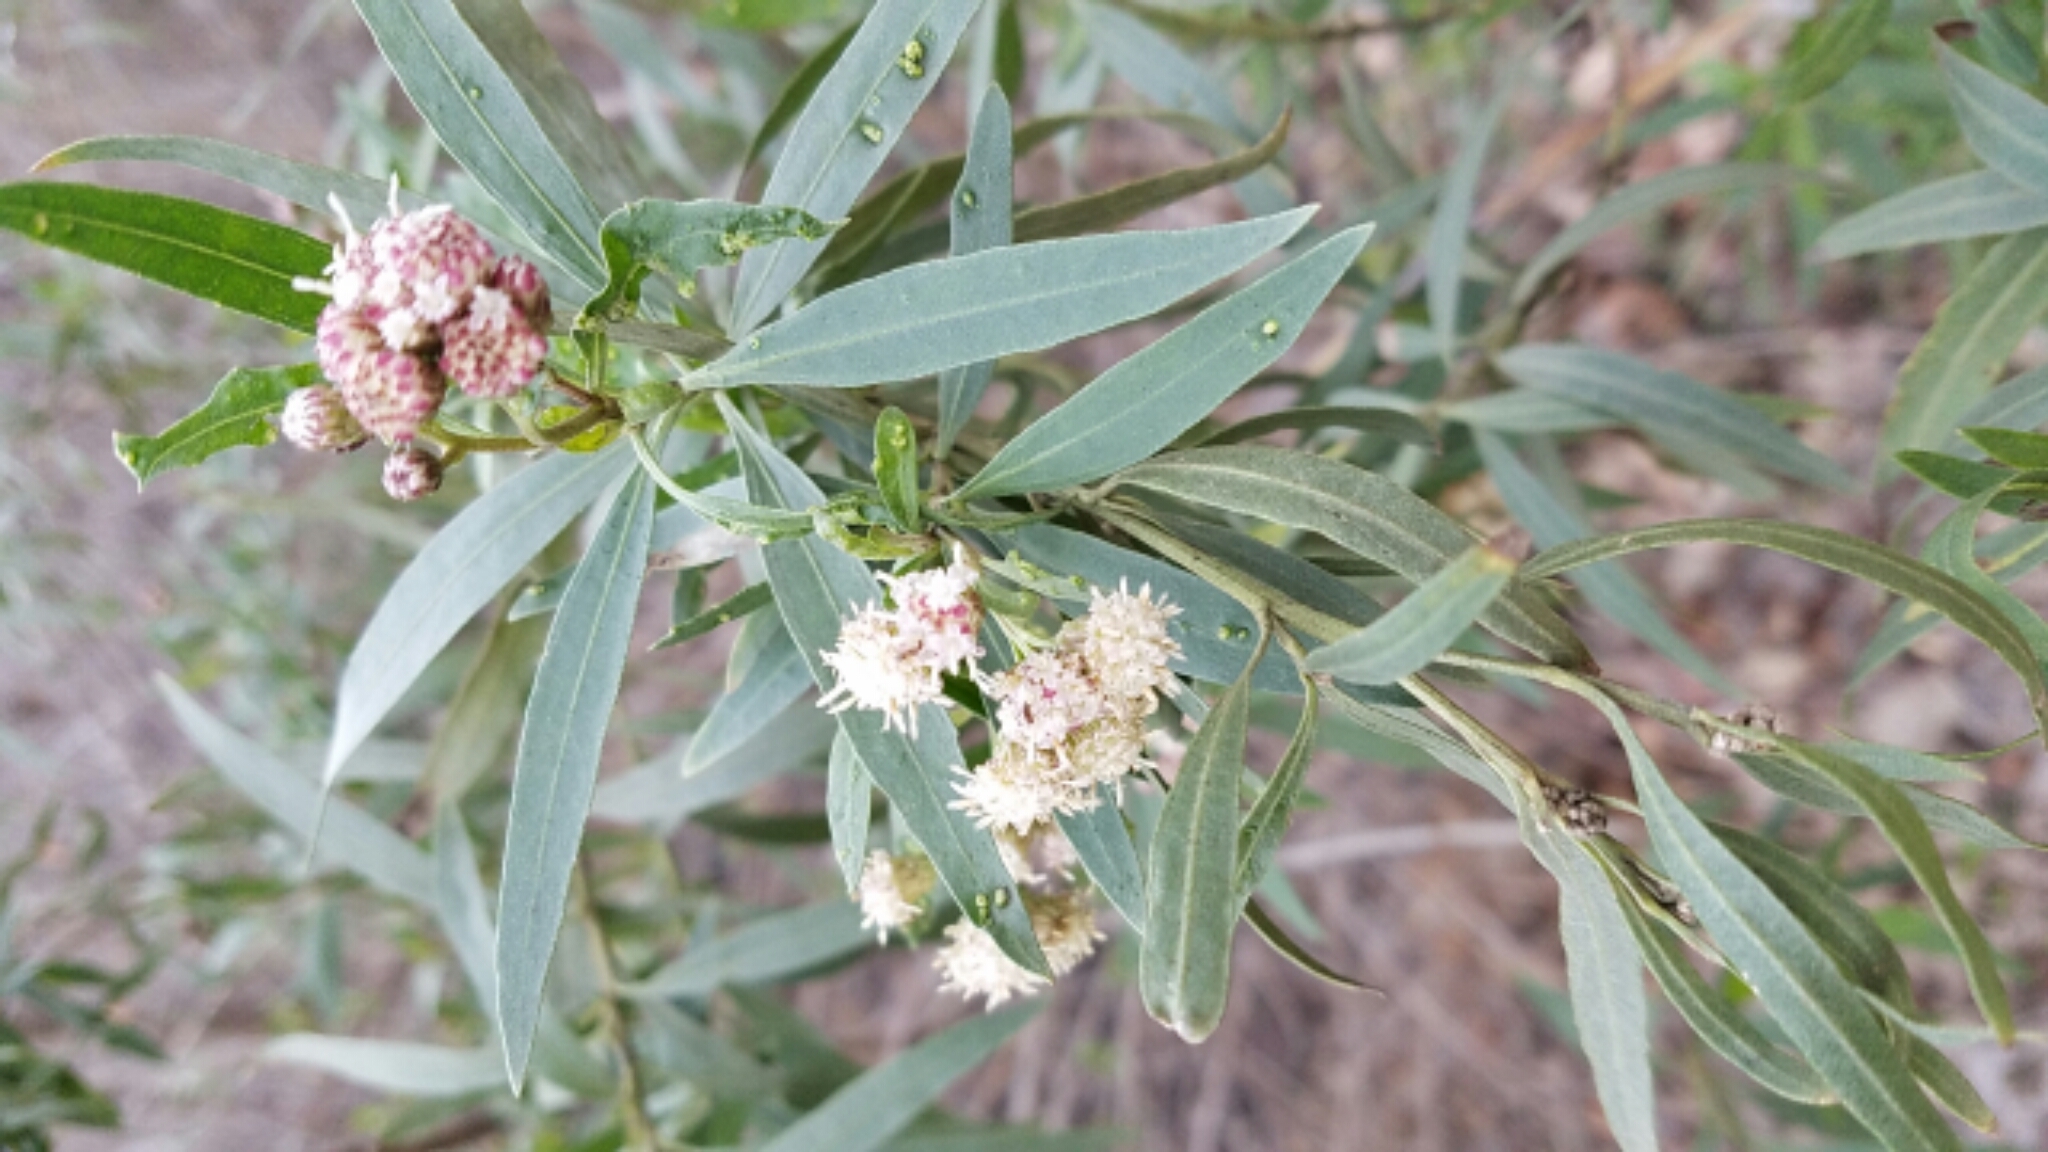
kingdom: Plantae
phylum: Tracheophyta
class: Magnoliopsida
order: Asterales
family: Asteraceae
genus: Baccharis
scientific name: Baccharis salicifolia
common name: Sticky baccharis
